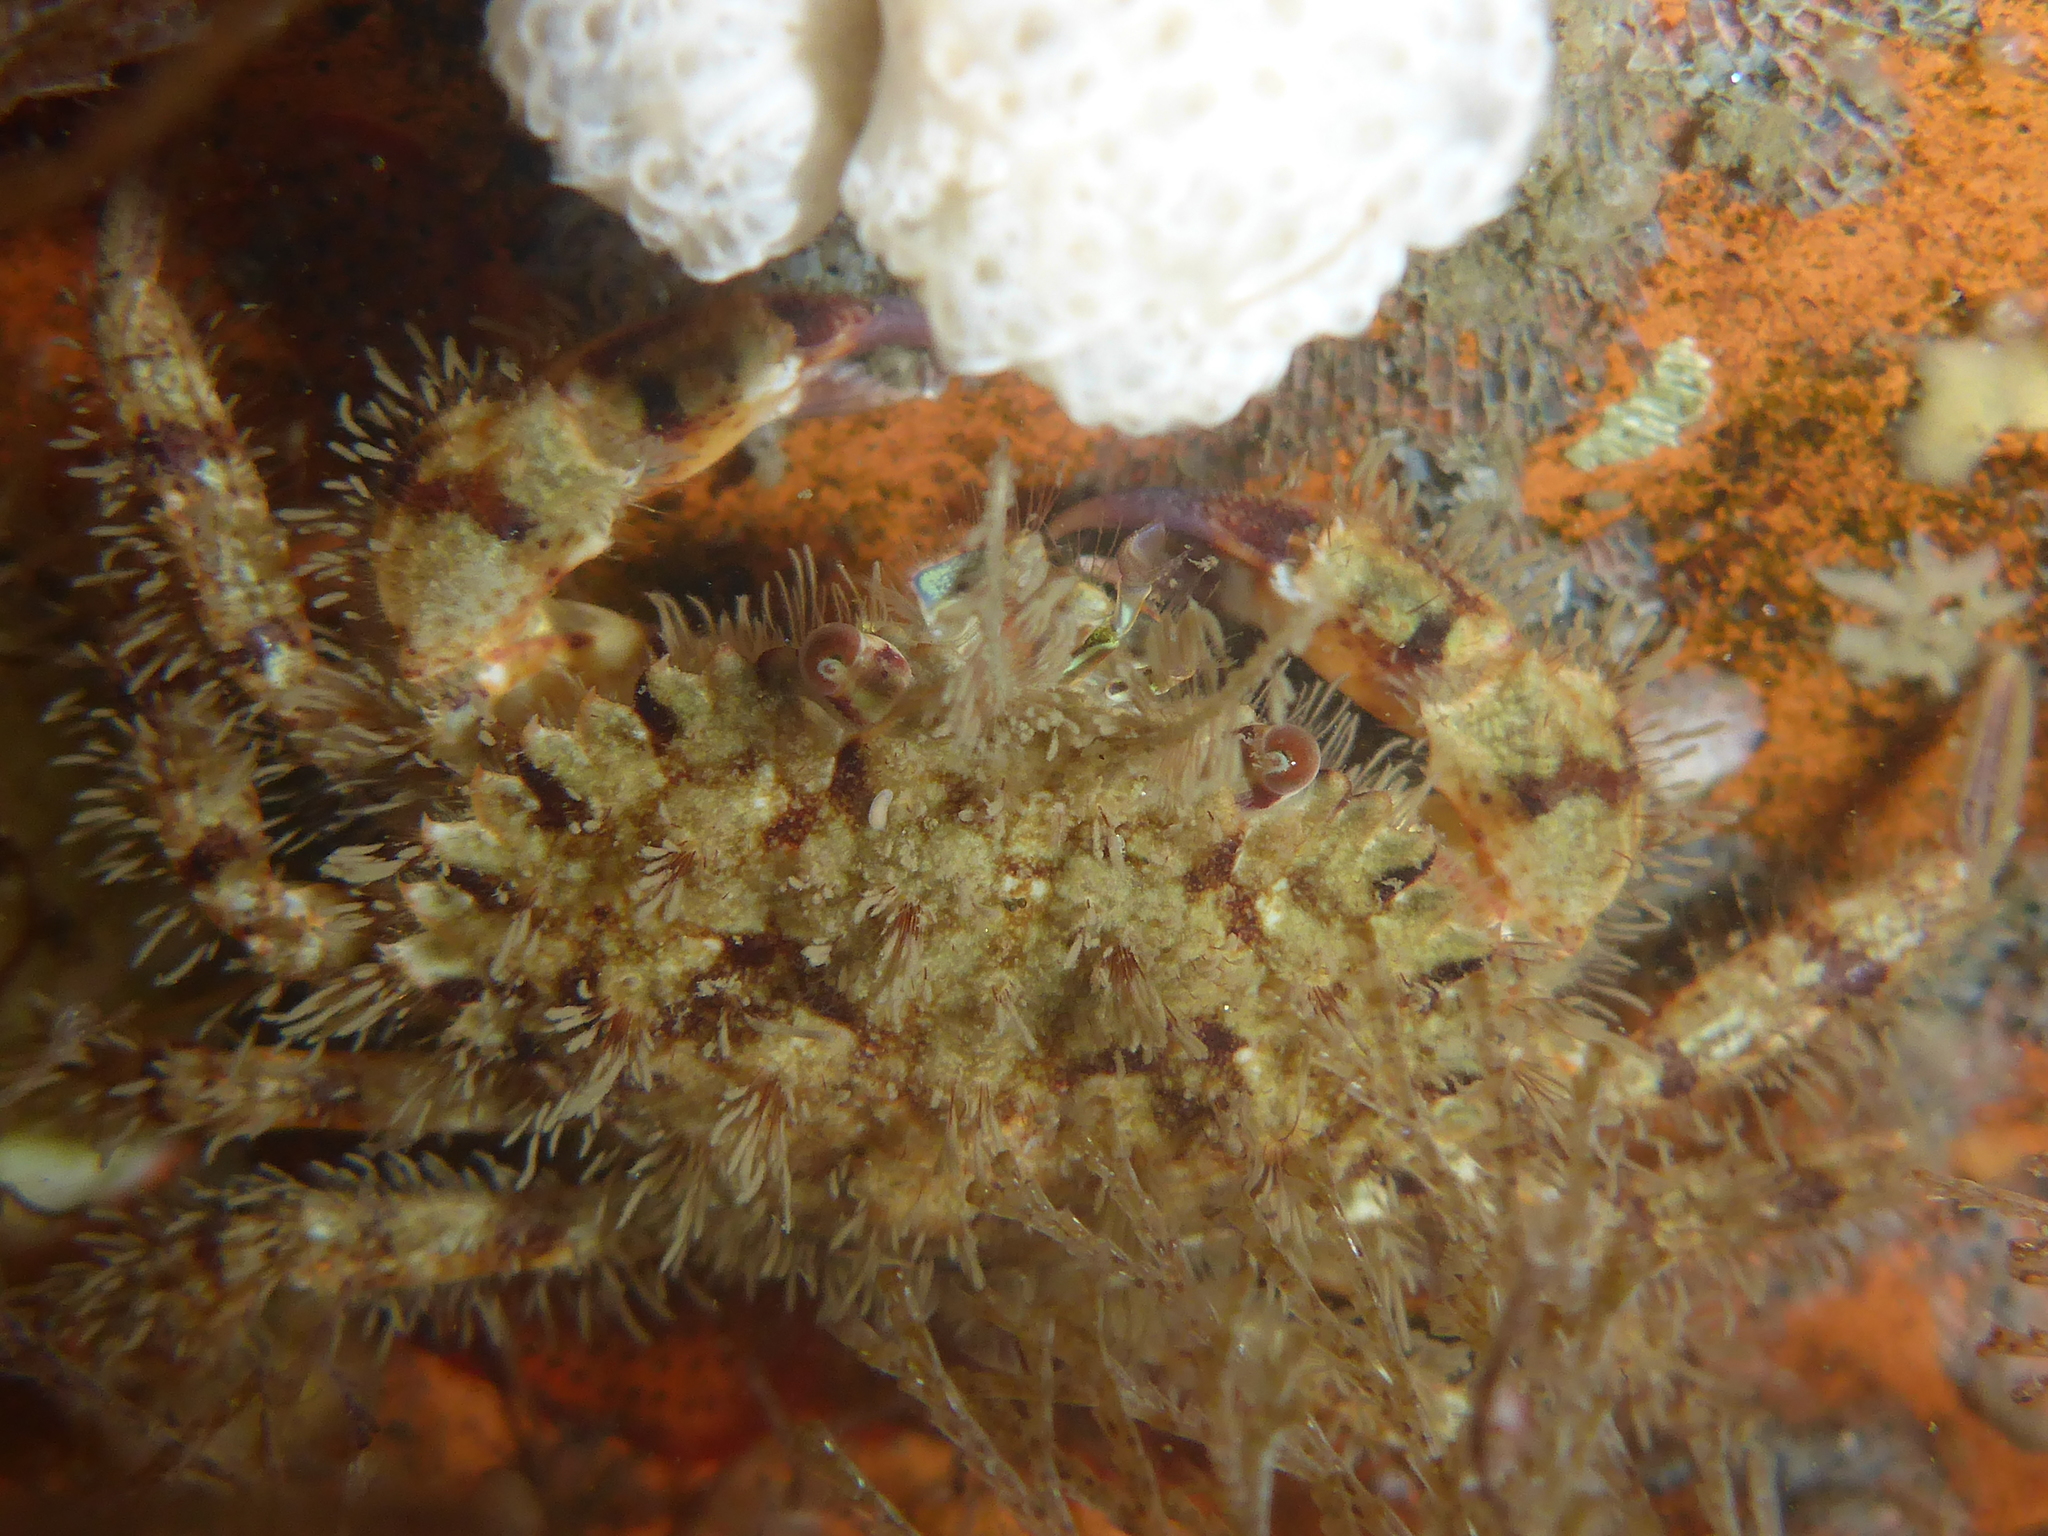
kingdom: Animalia
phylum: Arthropoda
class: Malacostraca
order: Decapoda
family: Cancridae
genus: Romaleon
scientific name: Romaleon antennarium
